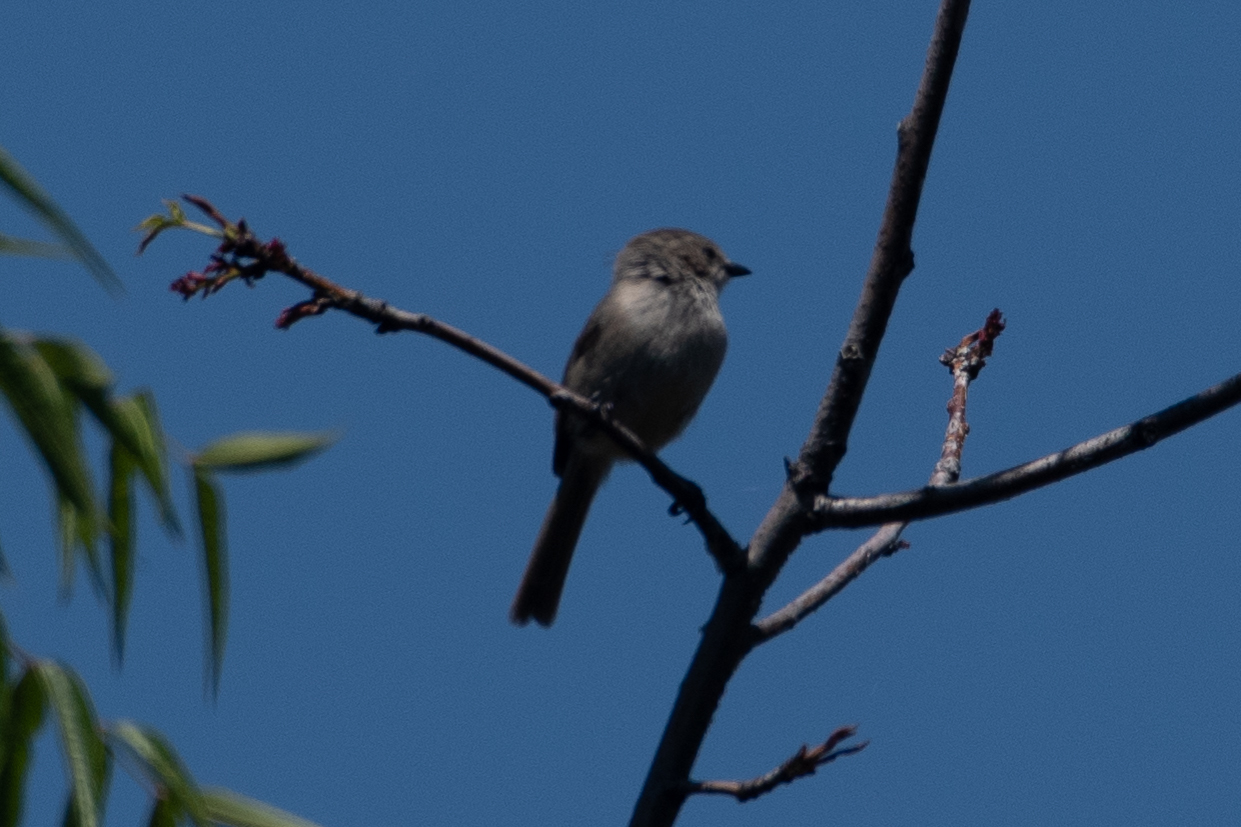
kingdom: Animalia
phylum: Chordata
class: Aves
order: Passeriformes
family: Aegithalidae
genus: Psaltriparus
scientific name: Psaltriparus minimus
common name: American bushtit
